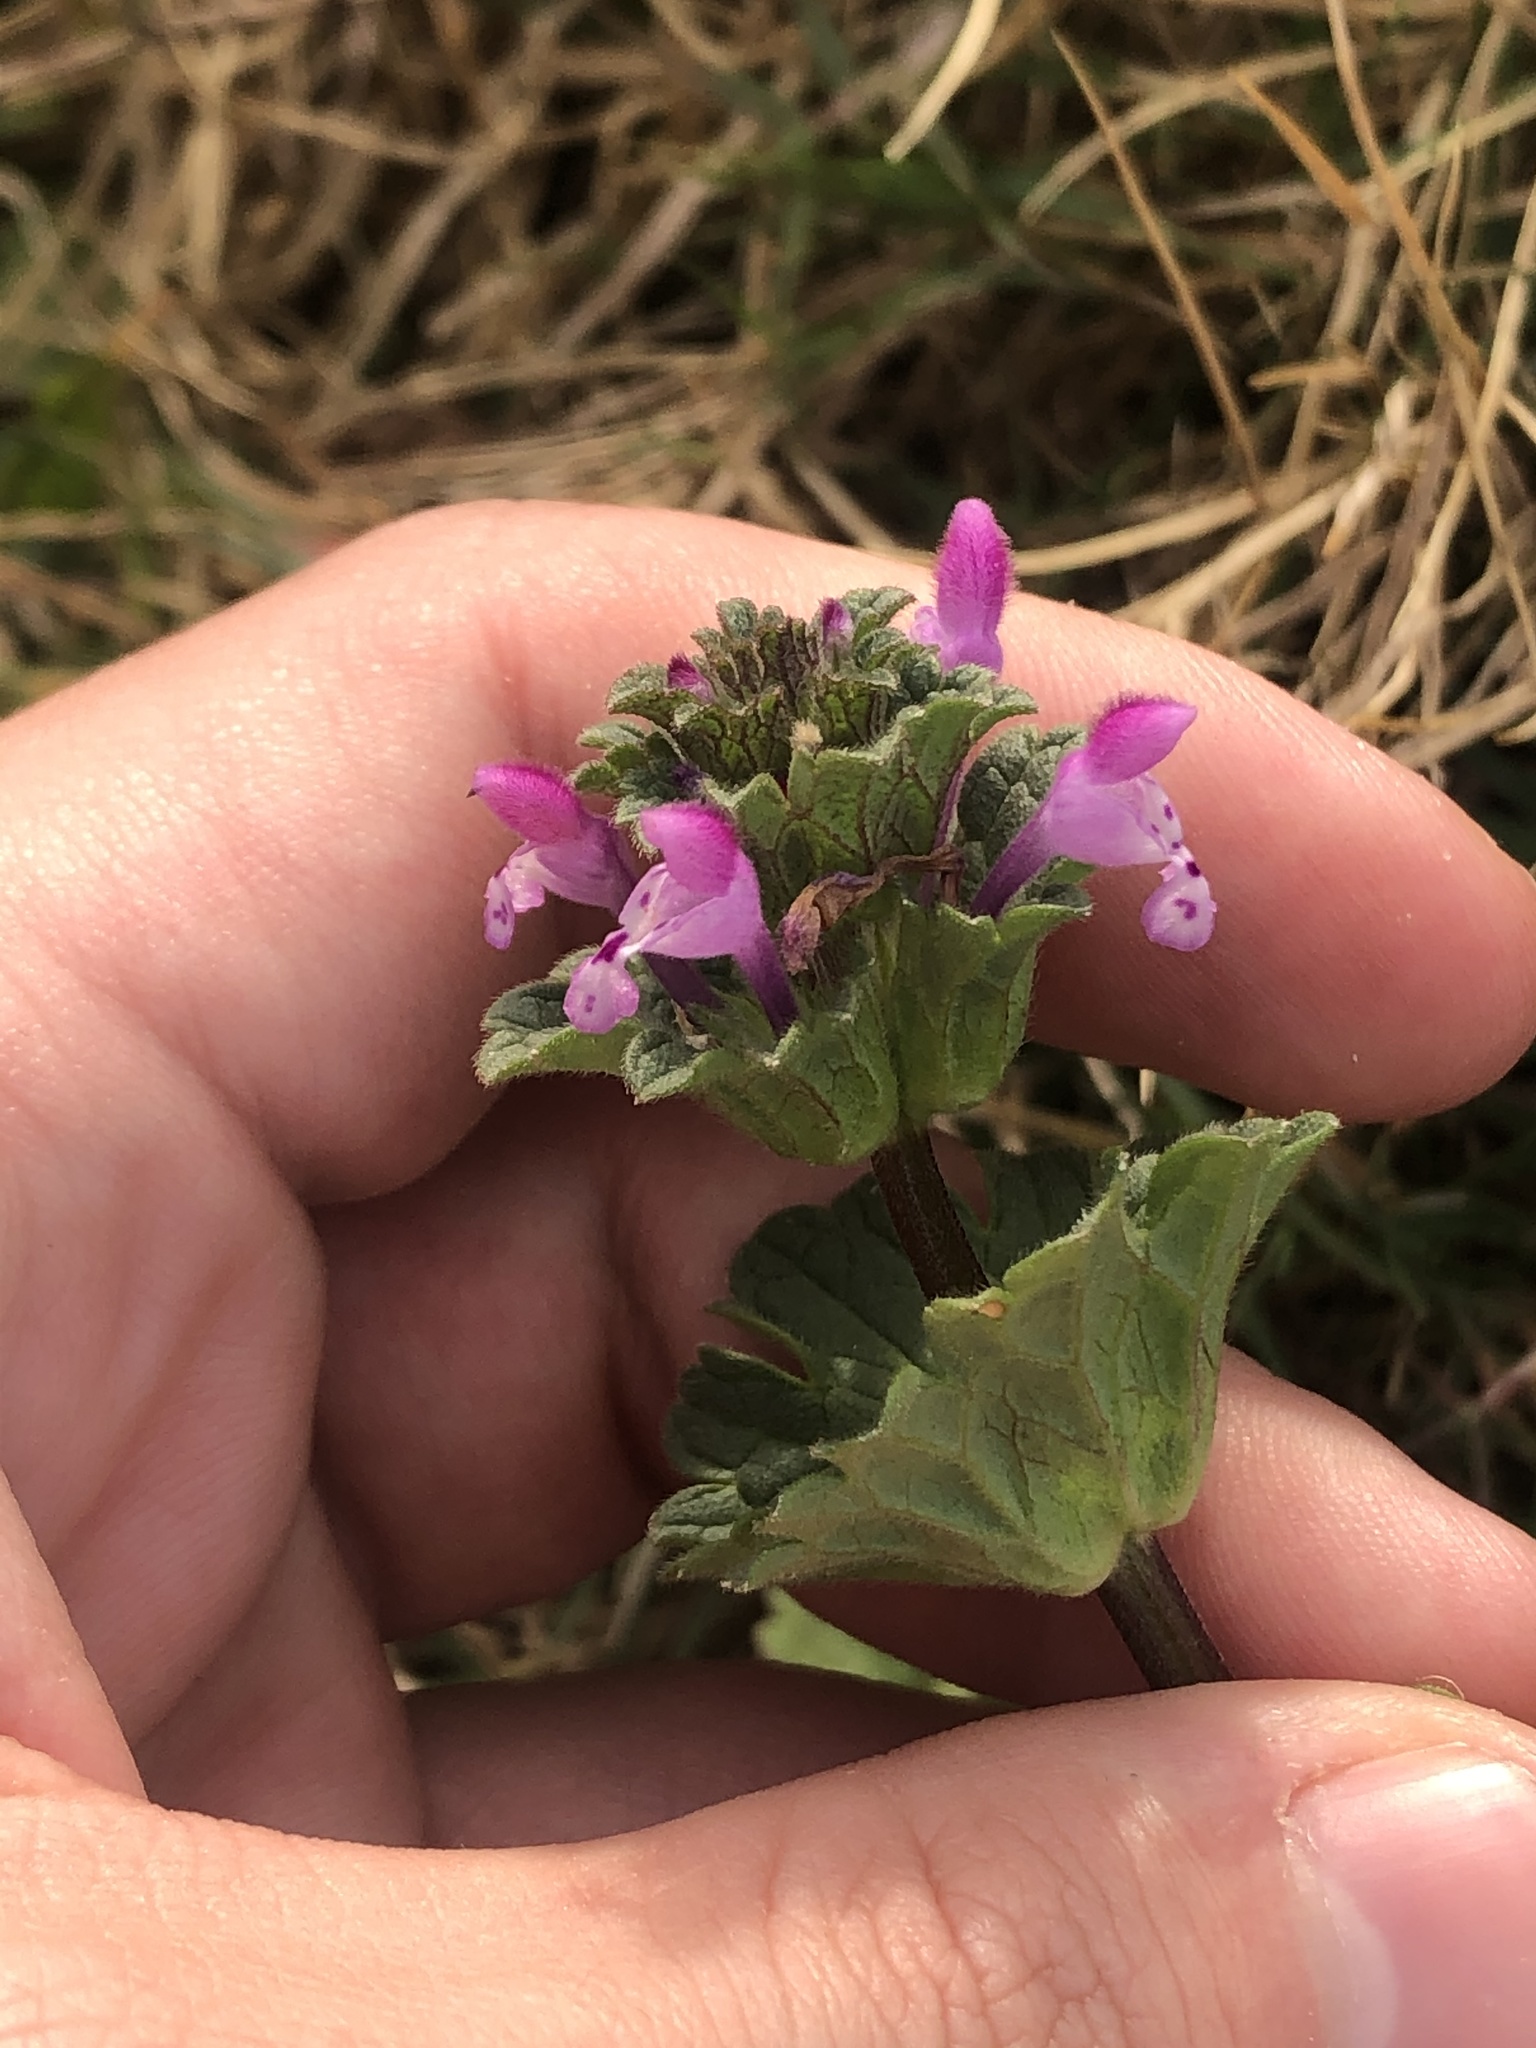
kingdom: Plantae
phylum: Tracheophyta
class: Magnoliopsida
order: Lamiales
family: Lamiaceae
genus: Lamium
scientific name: Lamium amplexicaule
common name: Henbit dead-nettle
